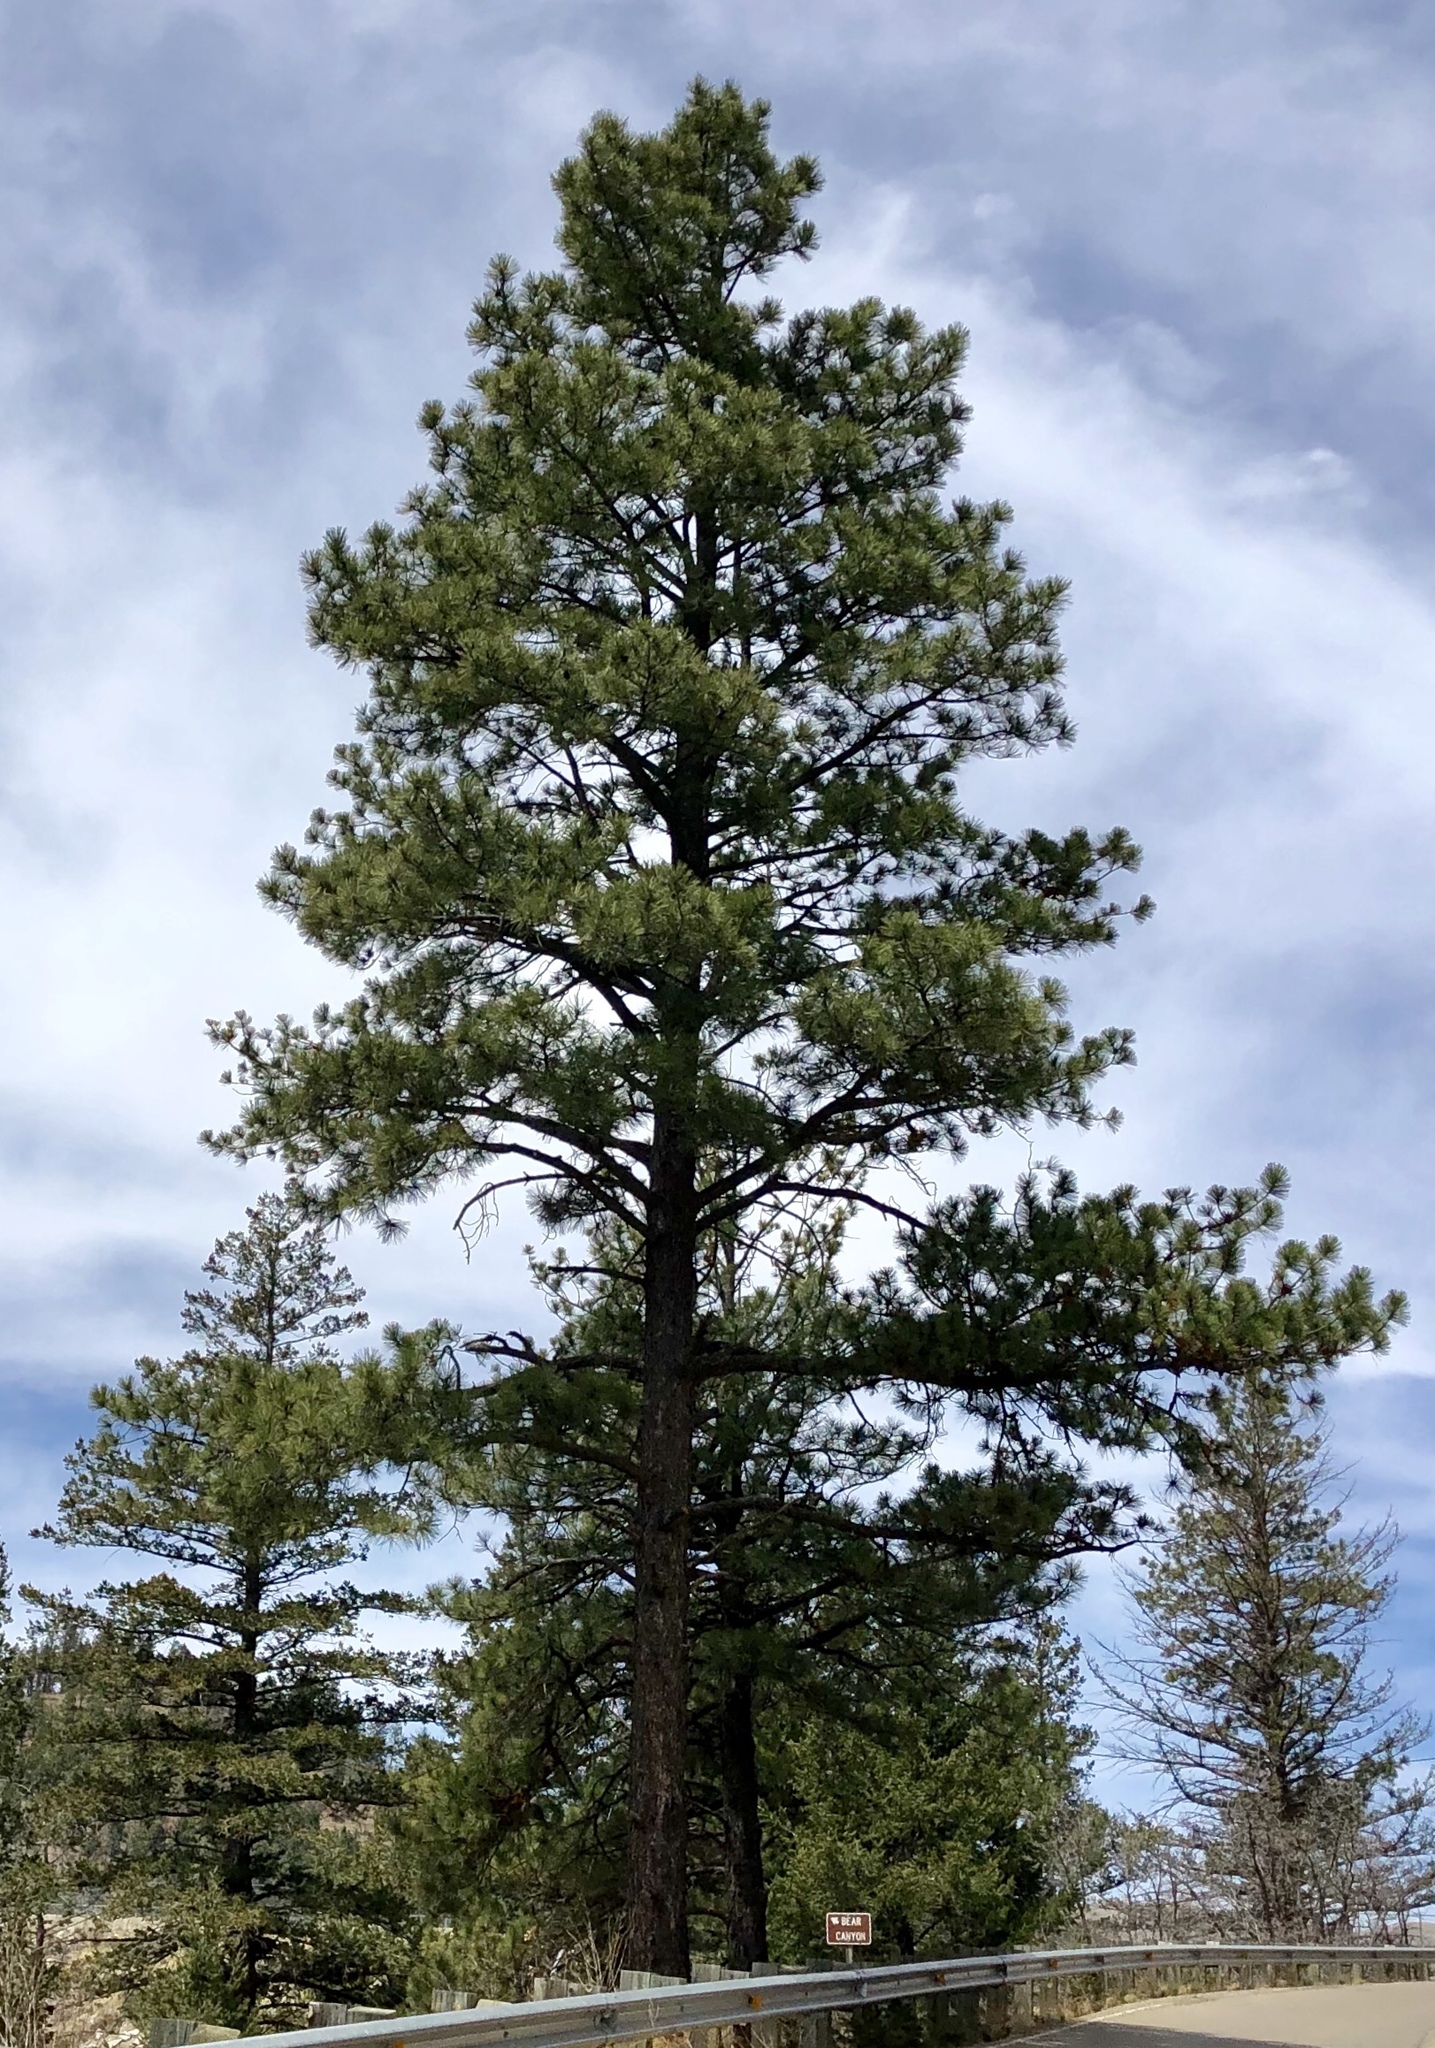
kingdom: Plantae
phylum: Tracheophyta
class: Pinopsida
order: Pinales
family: Pinaceae
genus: Pinus
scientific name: Pinus ponderosa
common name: Western yellow-pine
